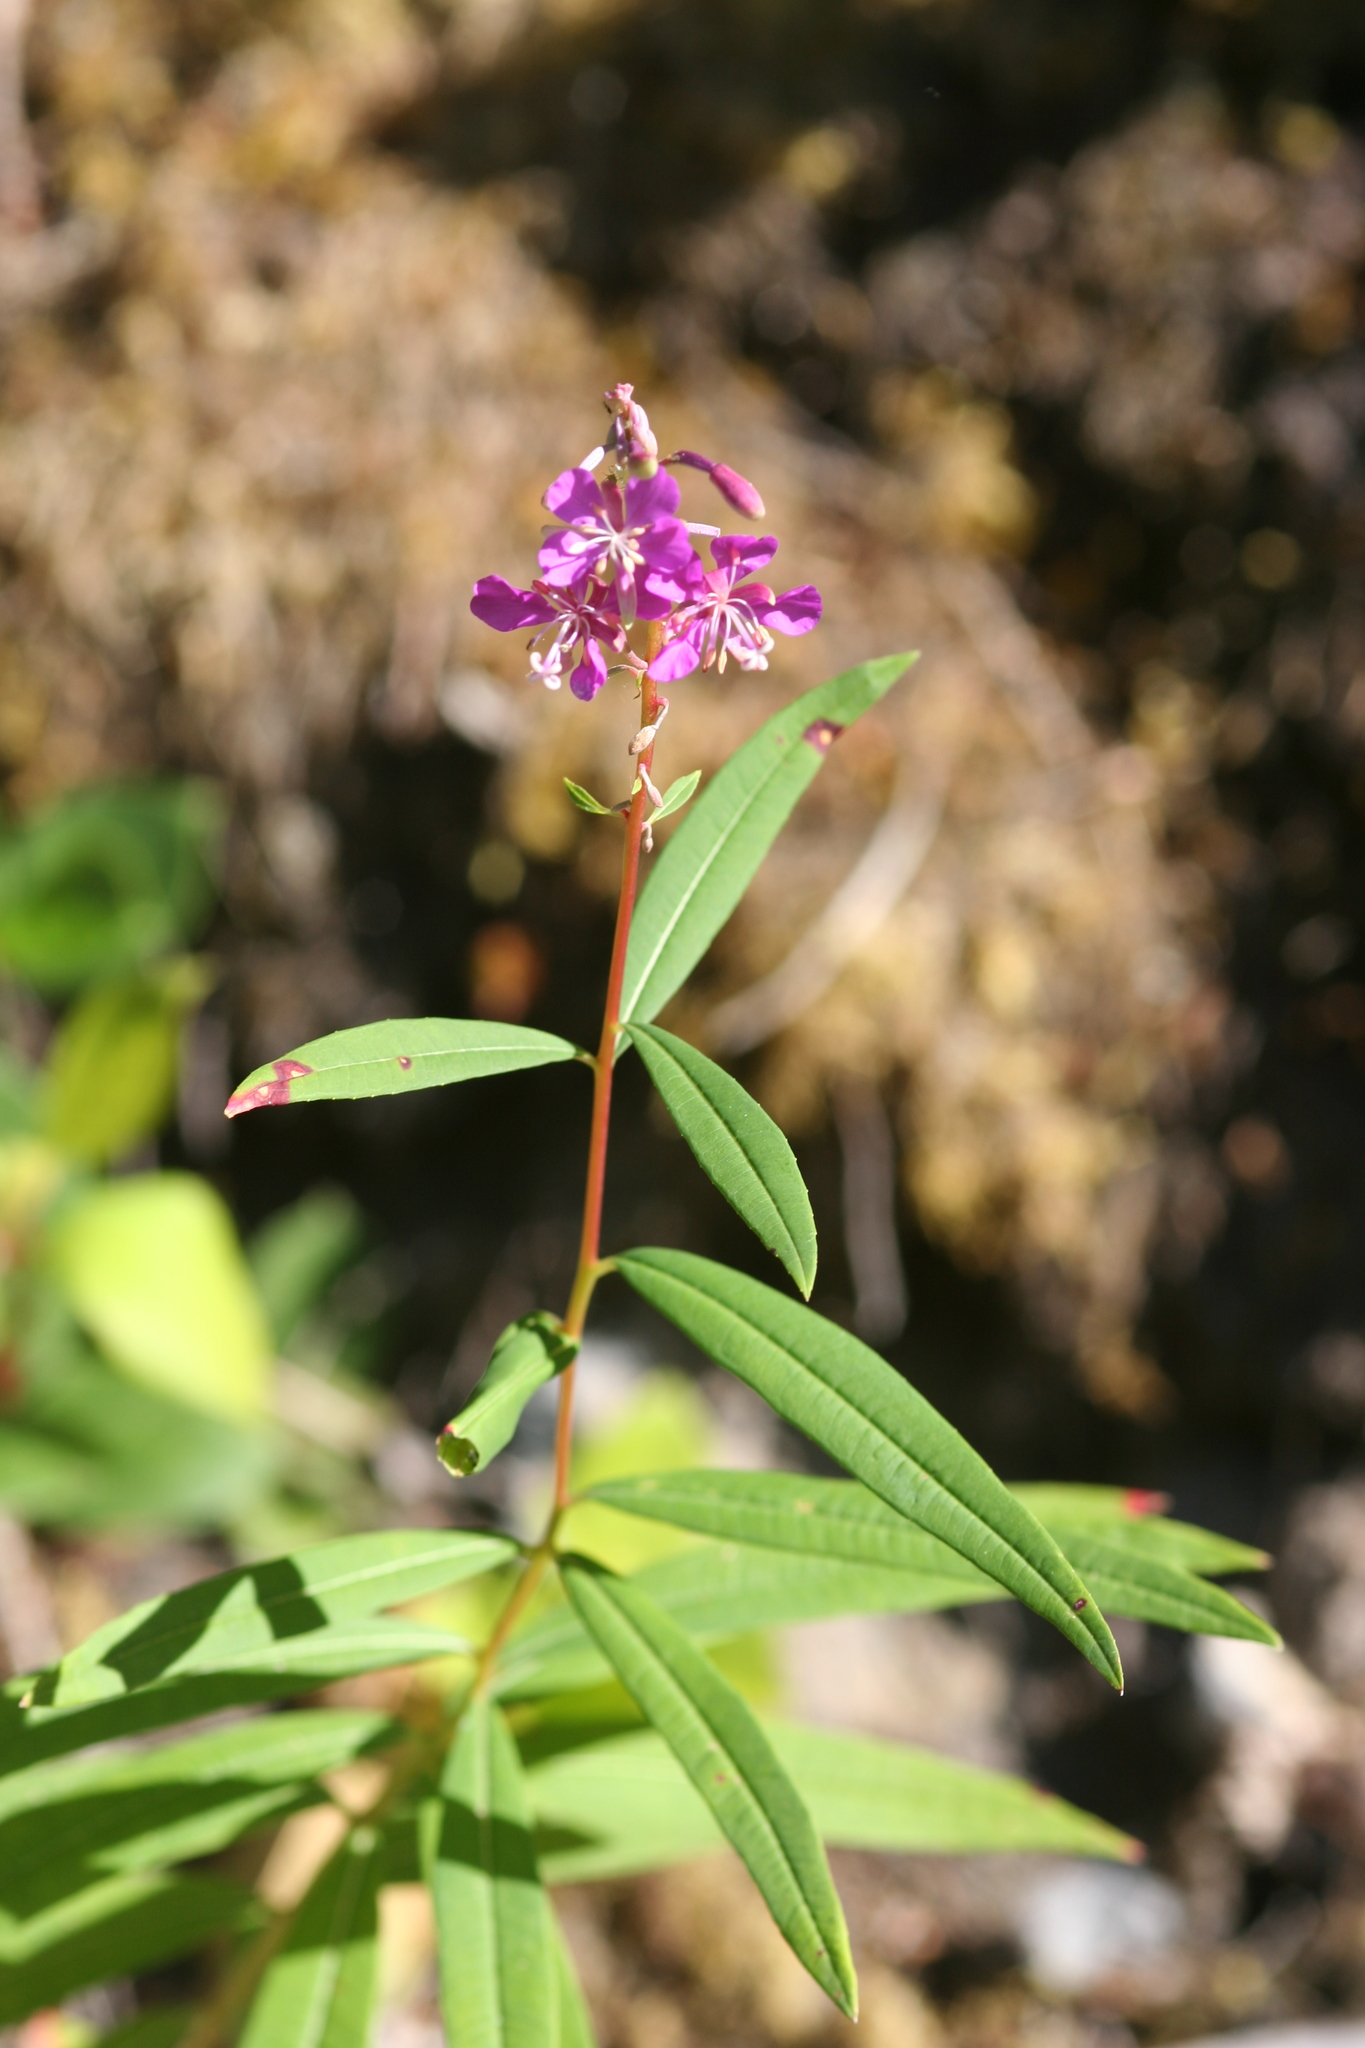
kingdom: Plantae
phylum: Tracheophyta
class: Magnoliopsida
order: Myrtales
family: Onagraceae
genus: Chamaenerion
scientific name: Chamaenerion angustifolium
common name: Fireweed
